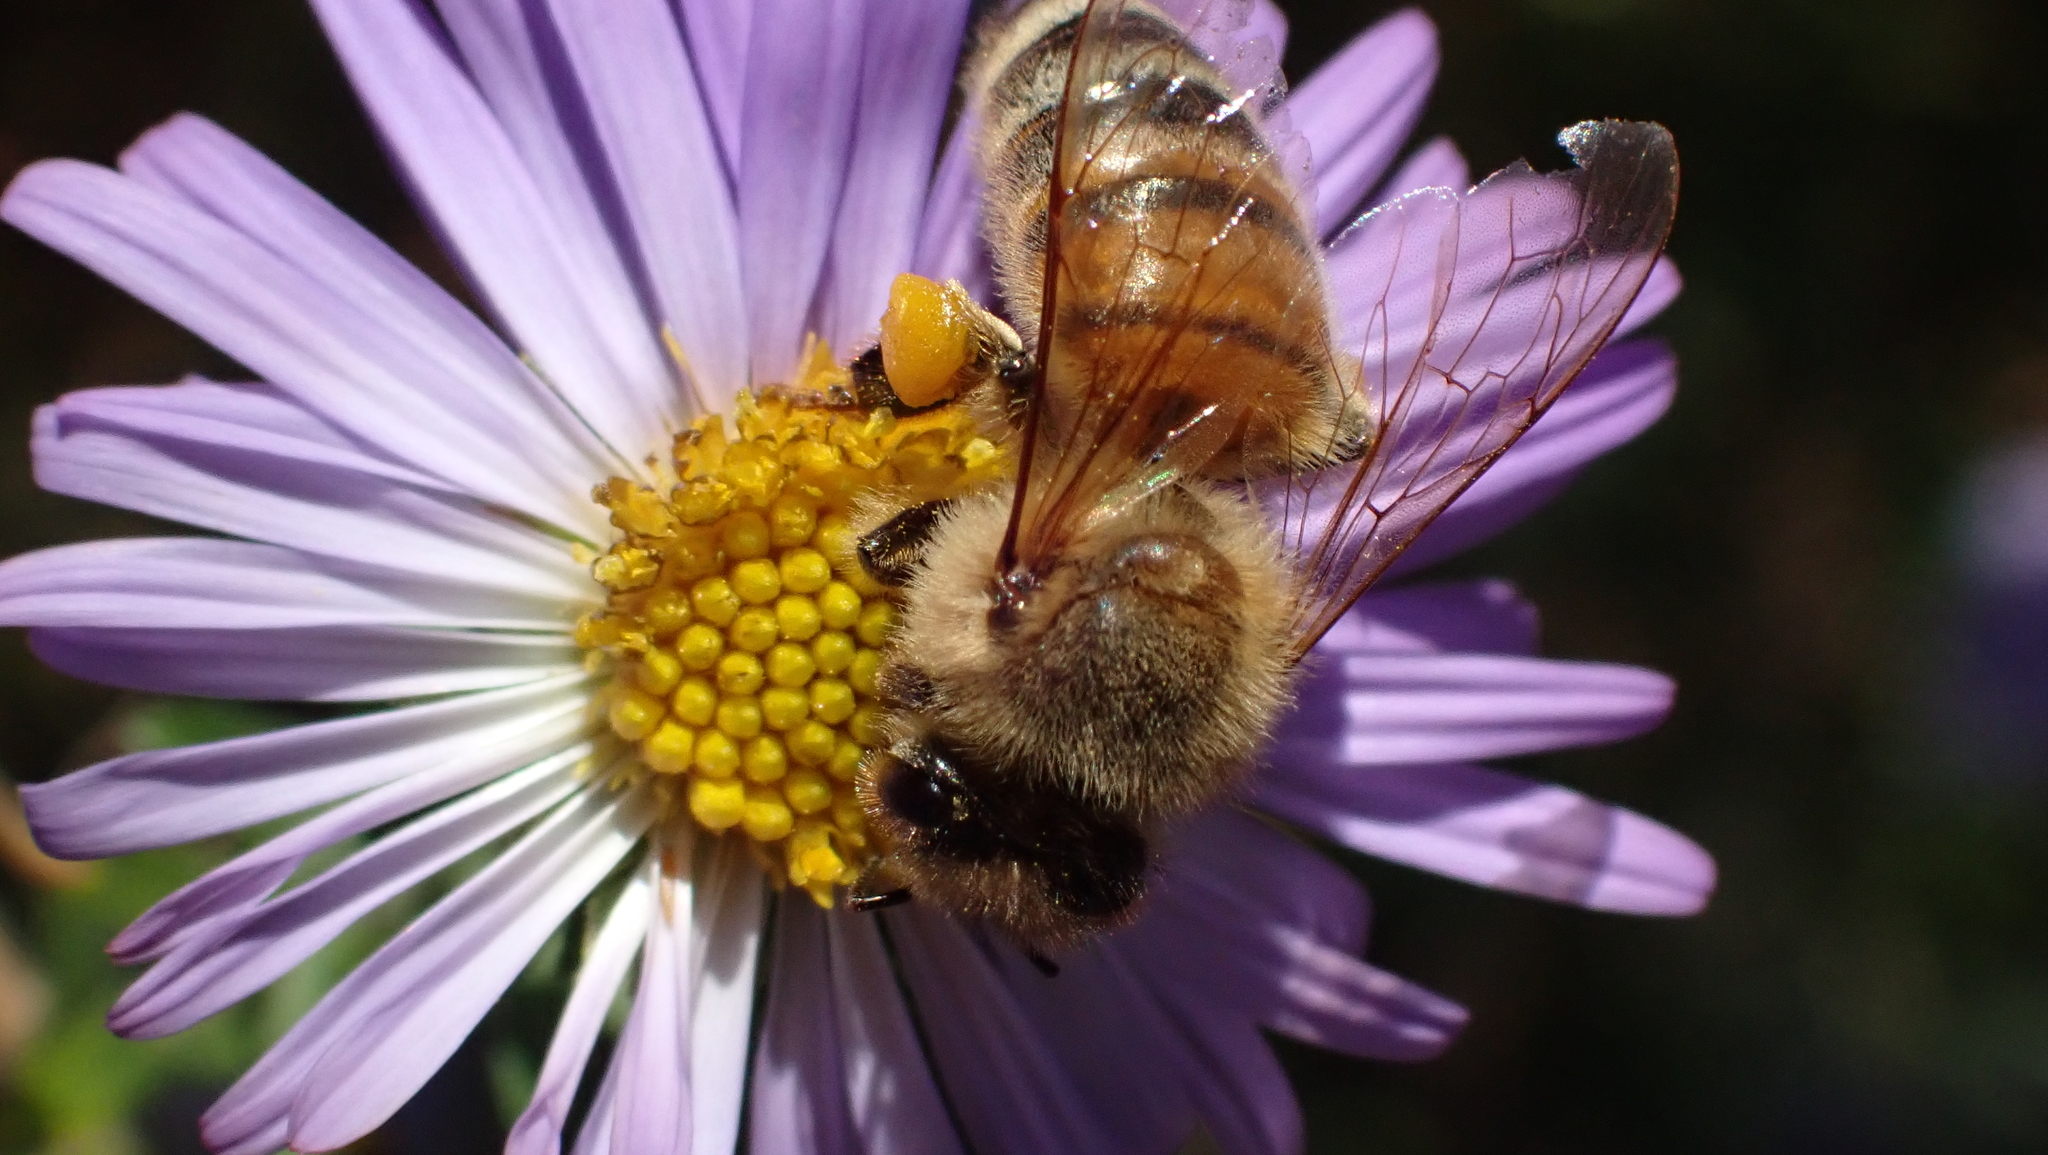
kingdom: Animalia
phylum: Arthropoda
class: Insecta
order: Hymenoptera
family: Apidae
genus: Apis
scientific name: Apis mellifera
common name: Honey bee
